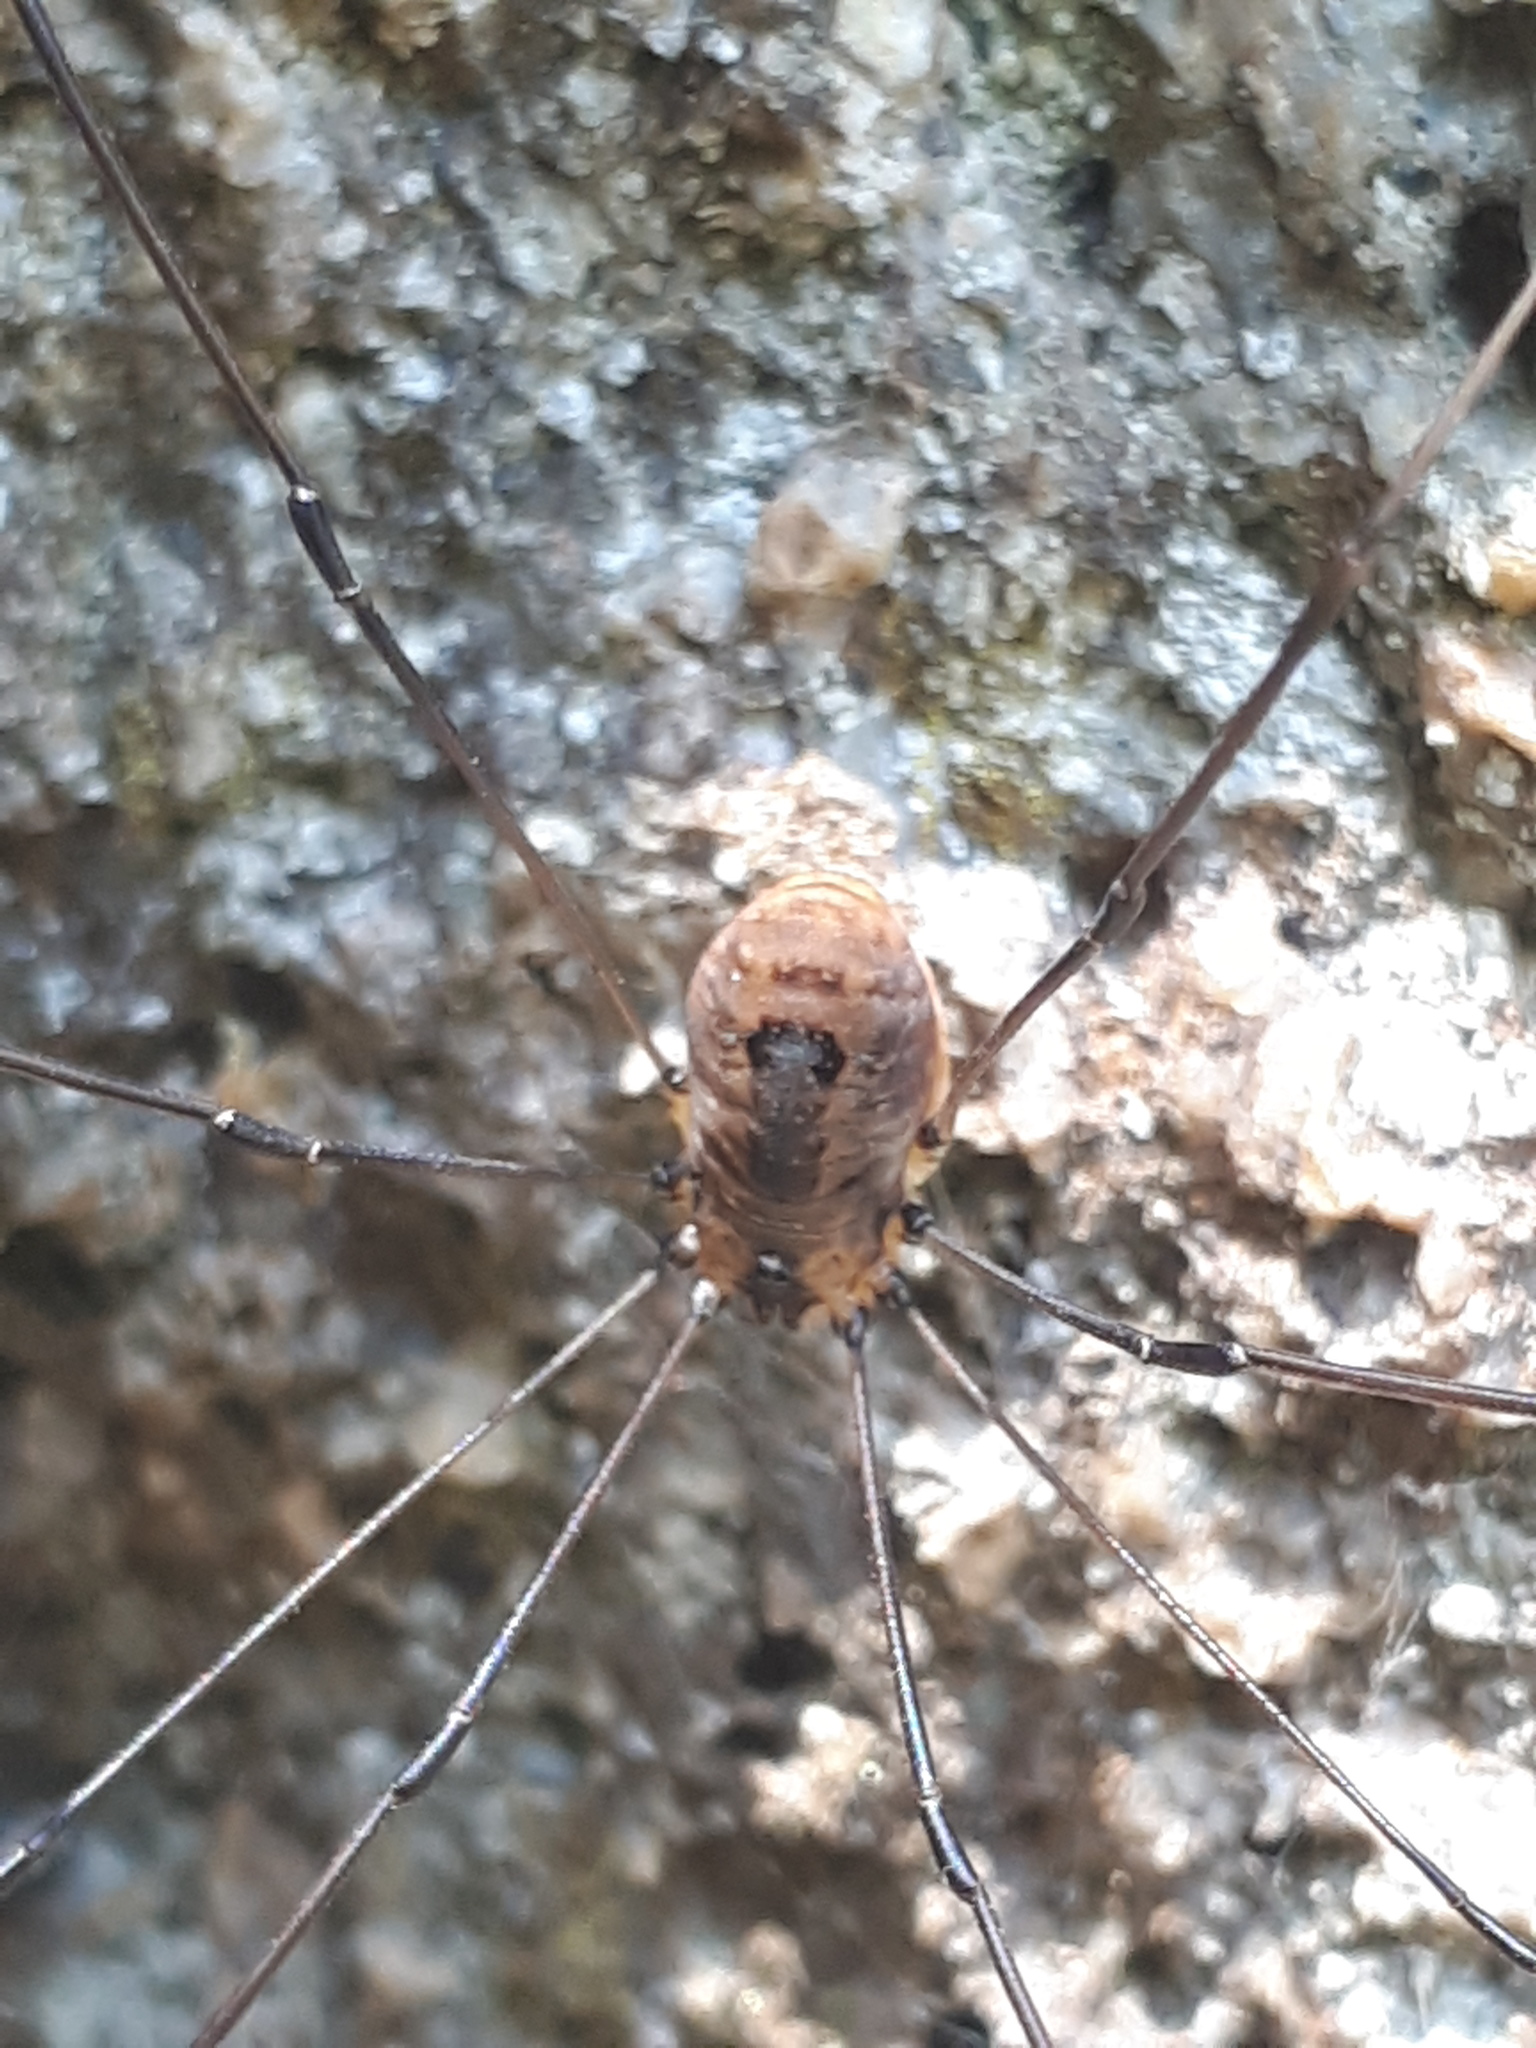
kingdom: Animalia
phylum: Arthropoda
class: Arachnida
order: Opiliones
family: Sclerosomatidae
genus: Leiobunum
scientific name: Leiobunum rotundum
